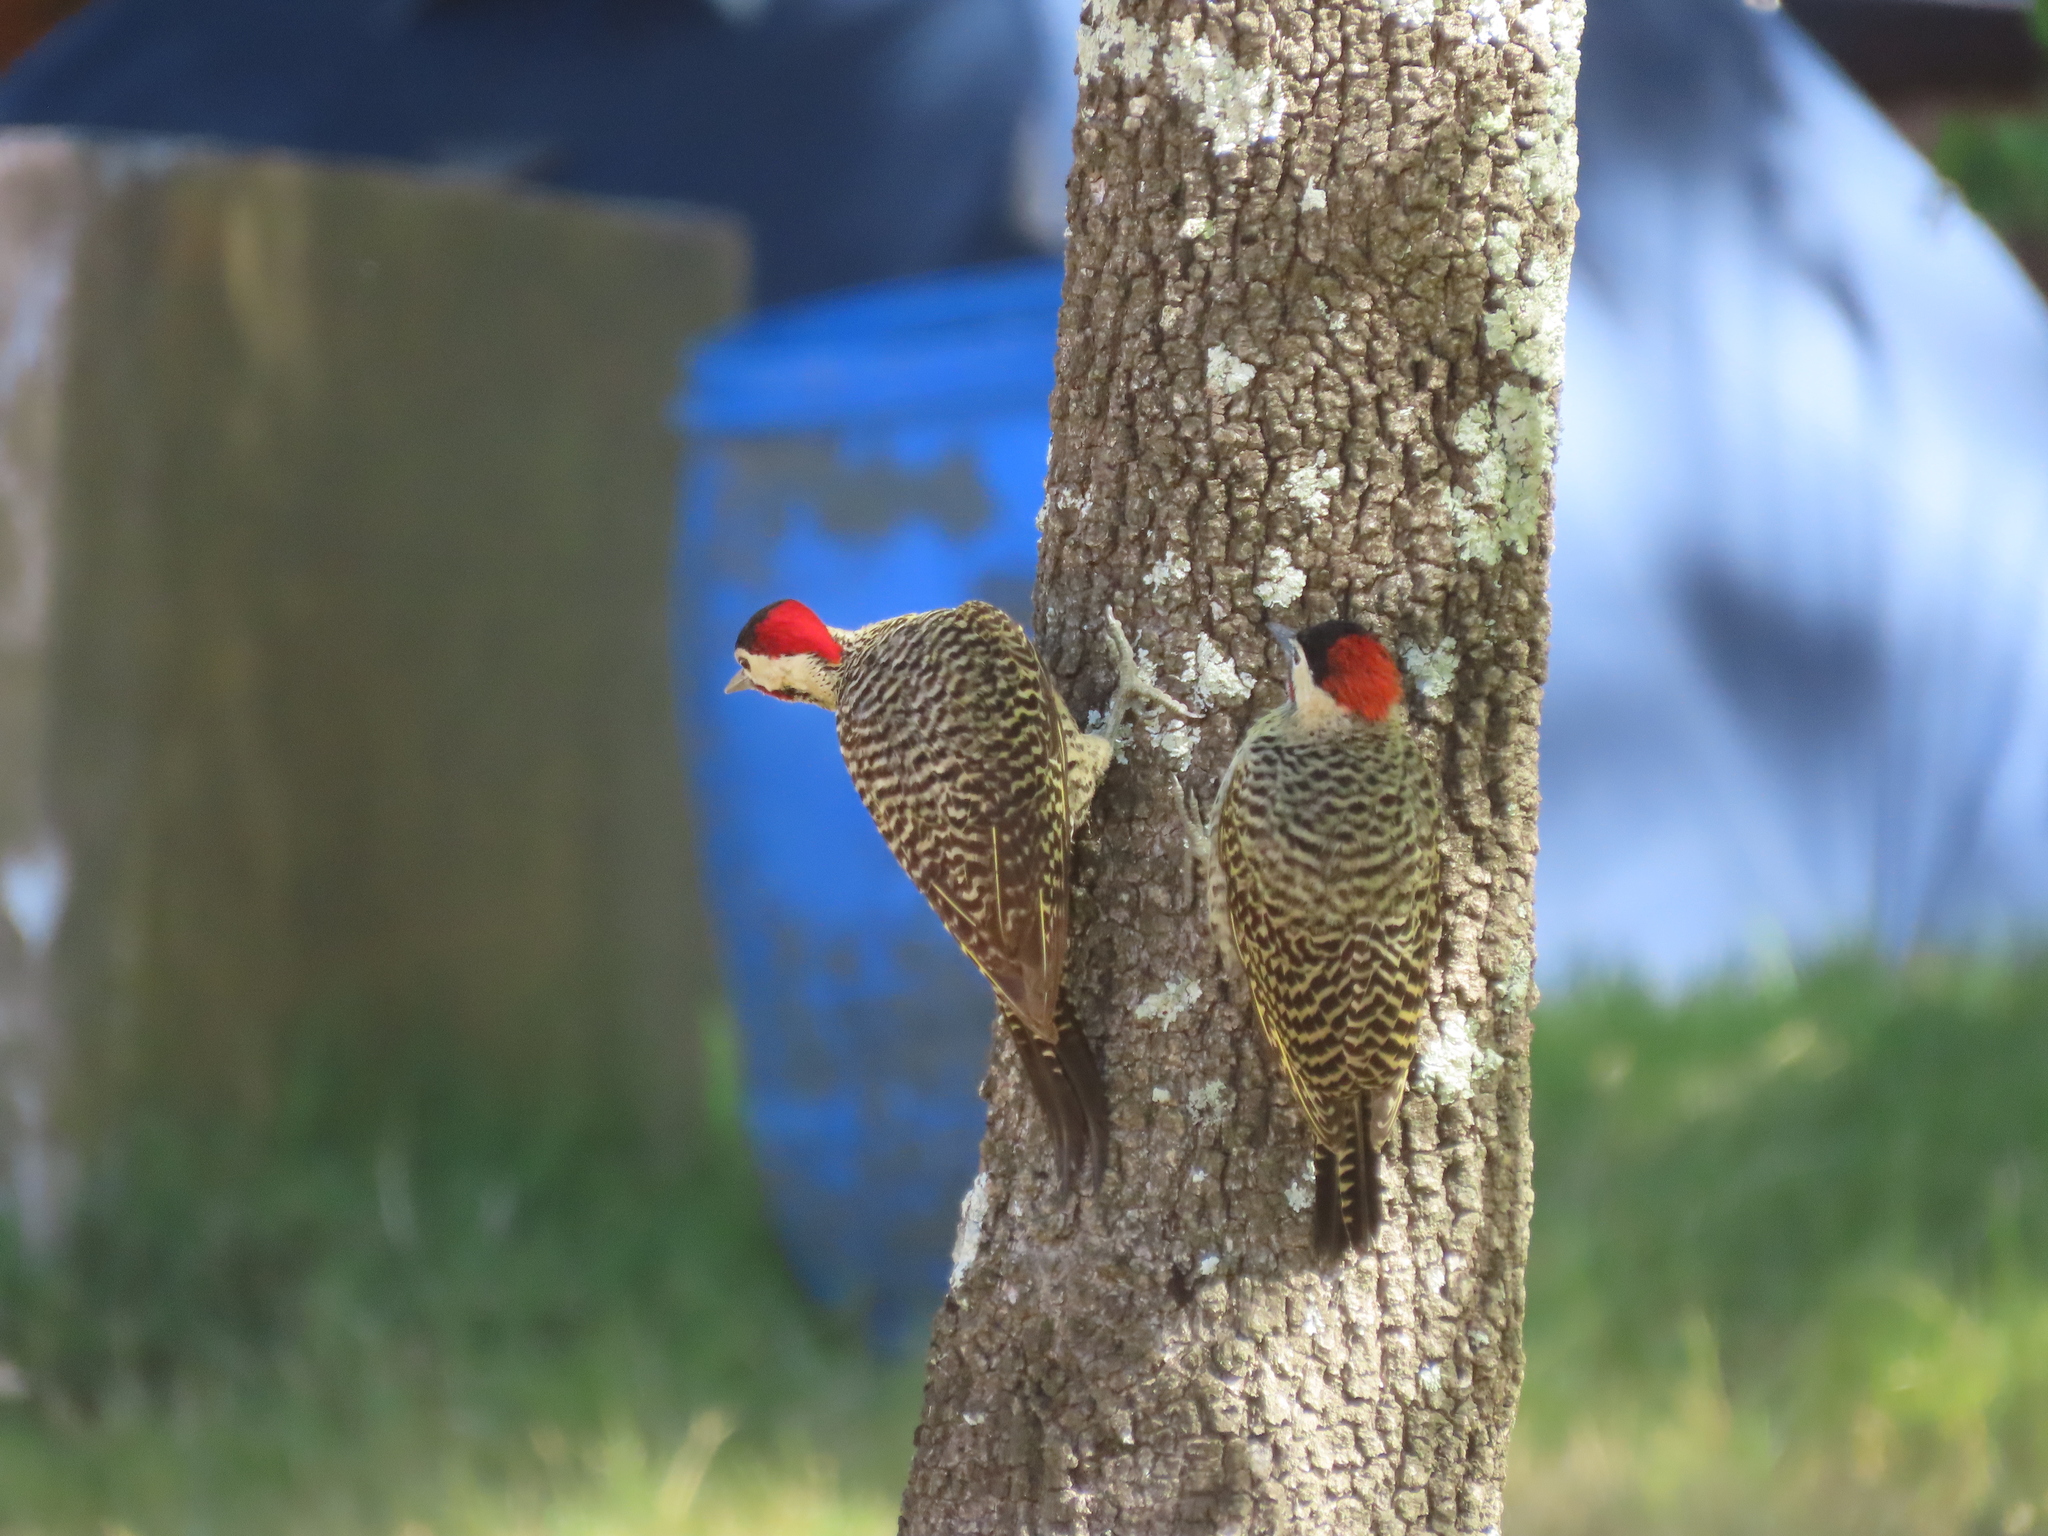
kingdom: Animalia
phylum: Chordata
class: Aves
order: Piciformes
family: Picidae
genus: Colaptes
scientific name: Colaptes melanochloros
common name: Green-barred woodpecker
